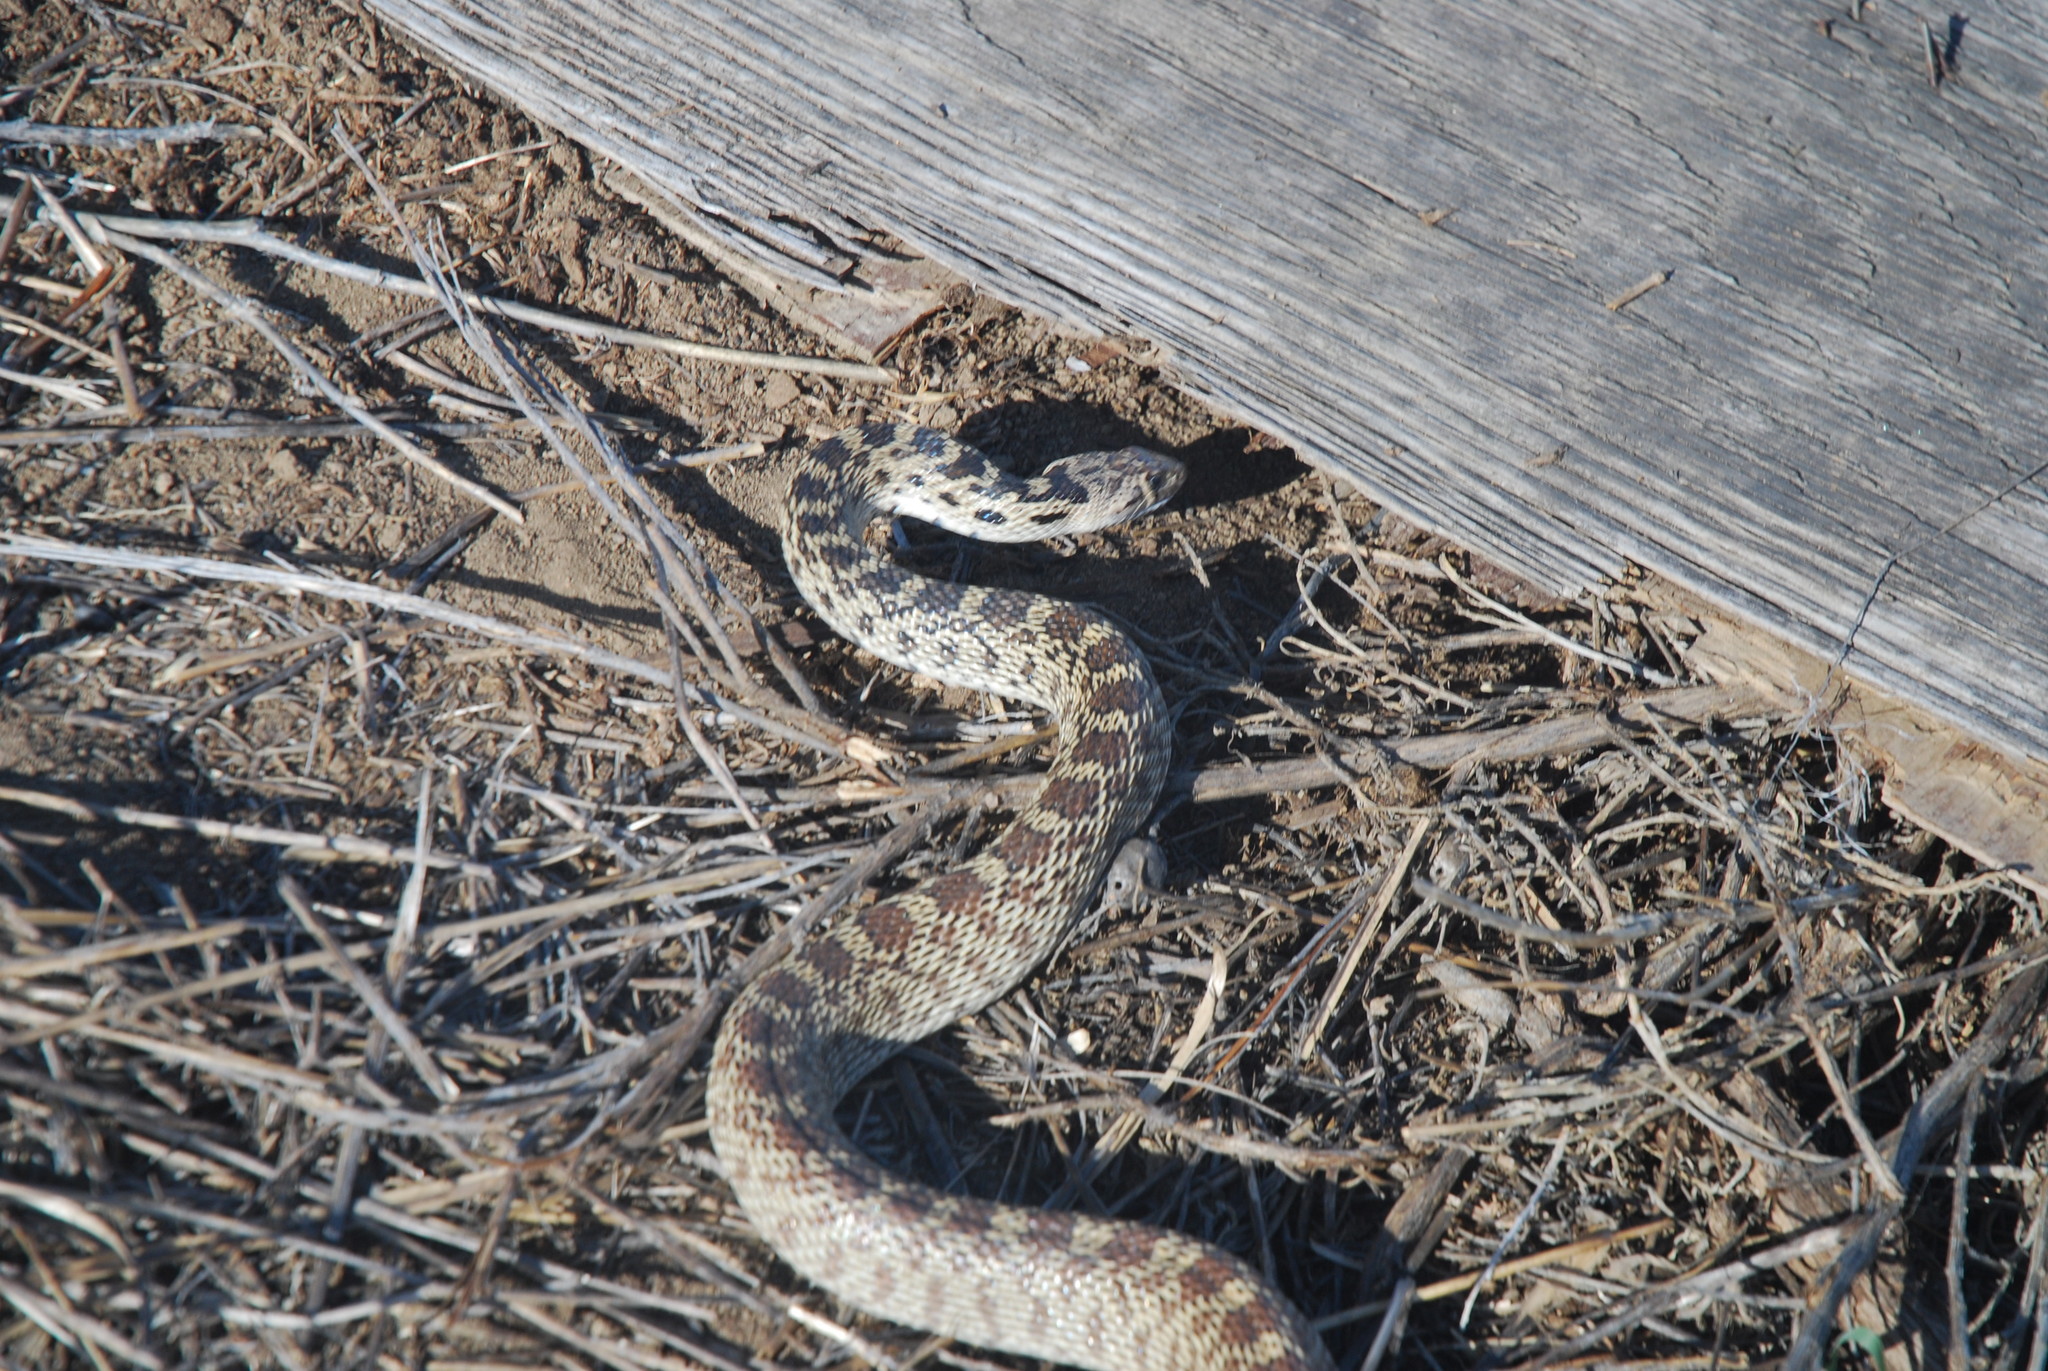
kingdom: Animalia
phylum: Chordata
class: Squamata
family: Colubridae
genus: Pituophis
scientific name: Pituophis catenifer
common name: Gopher snake
